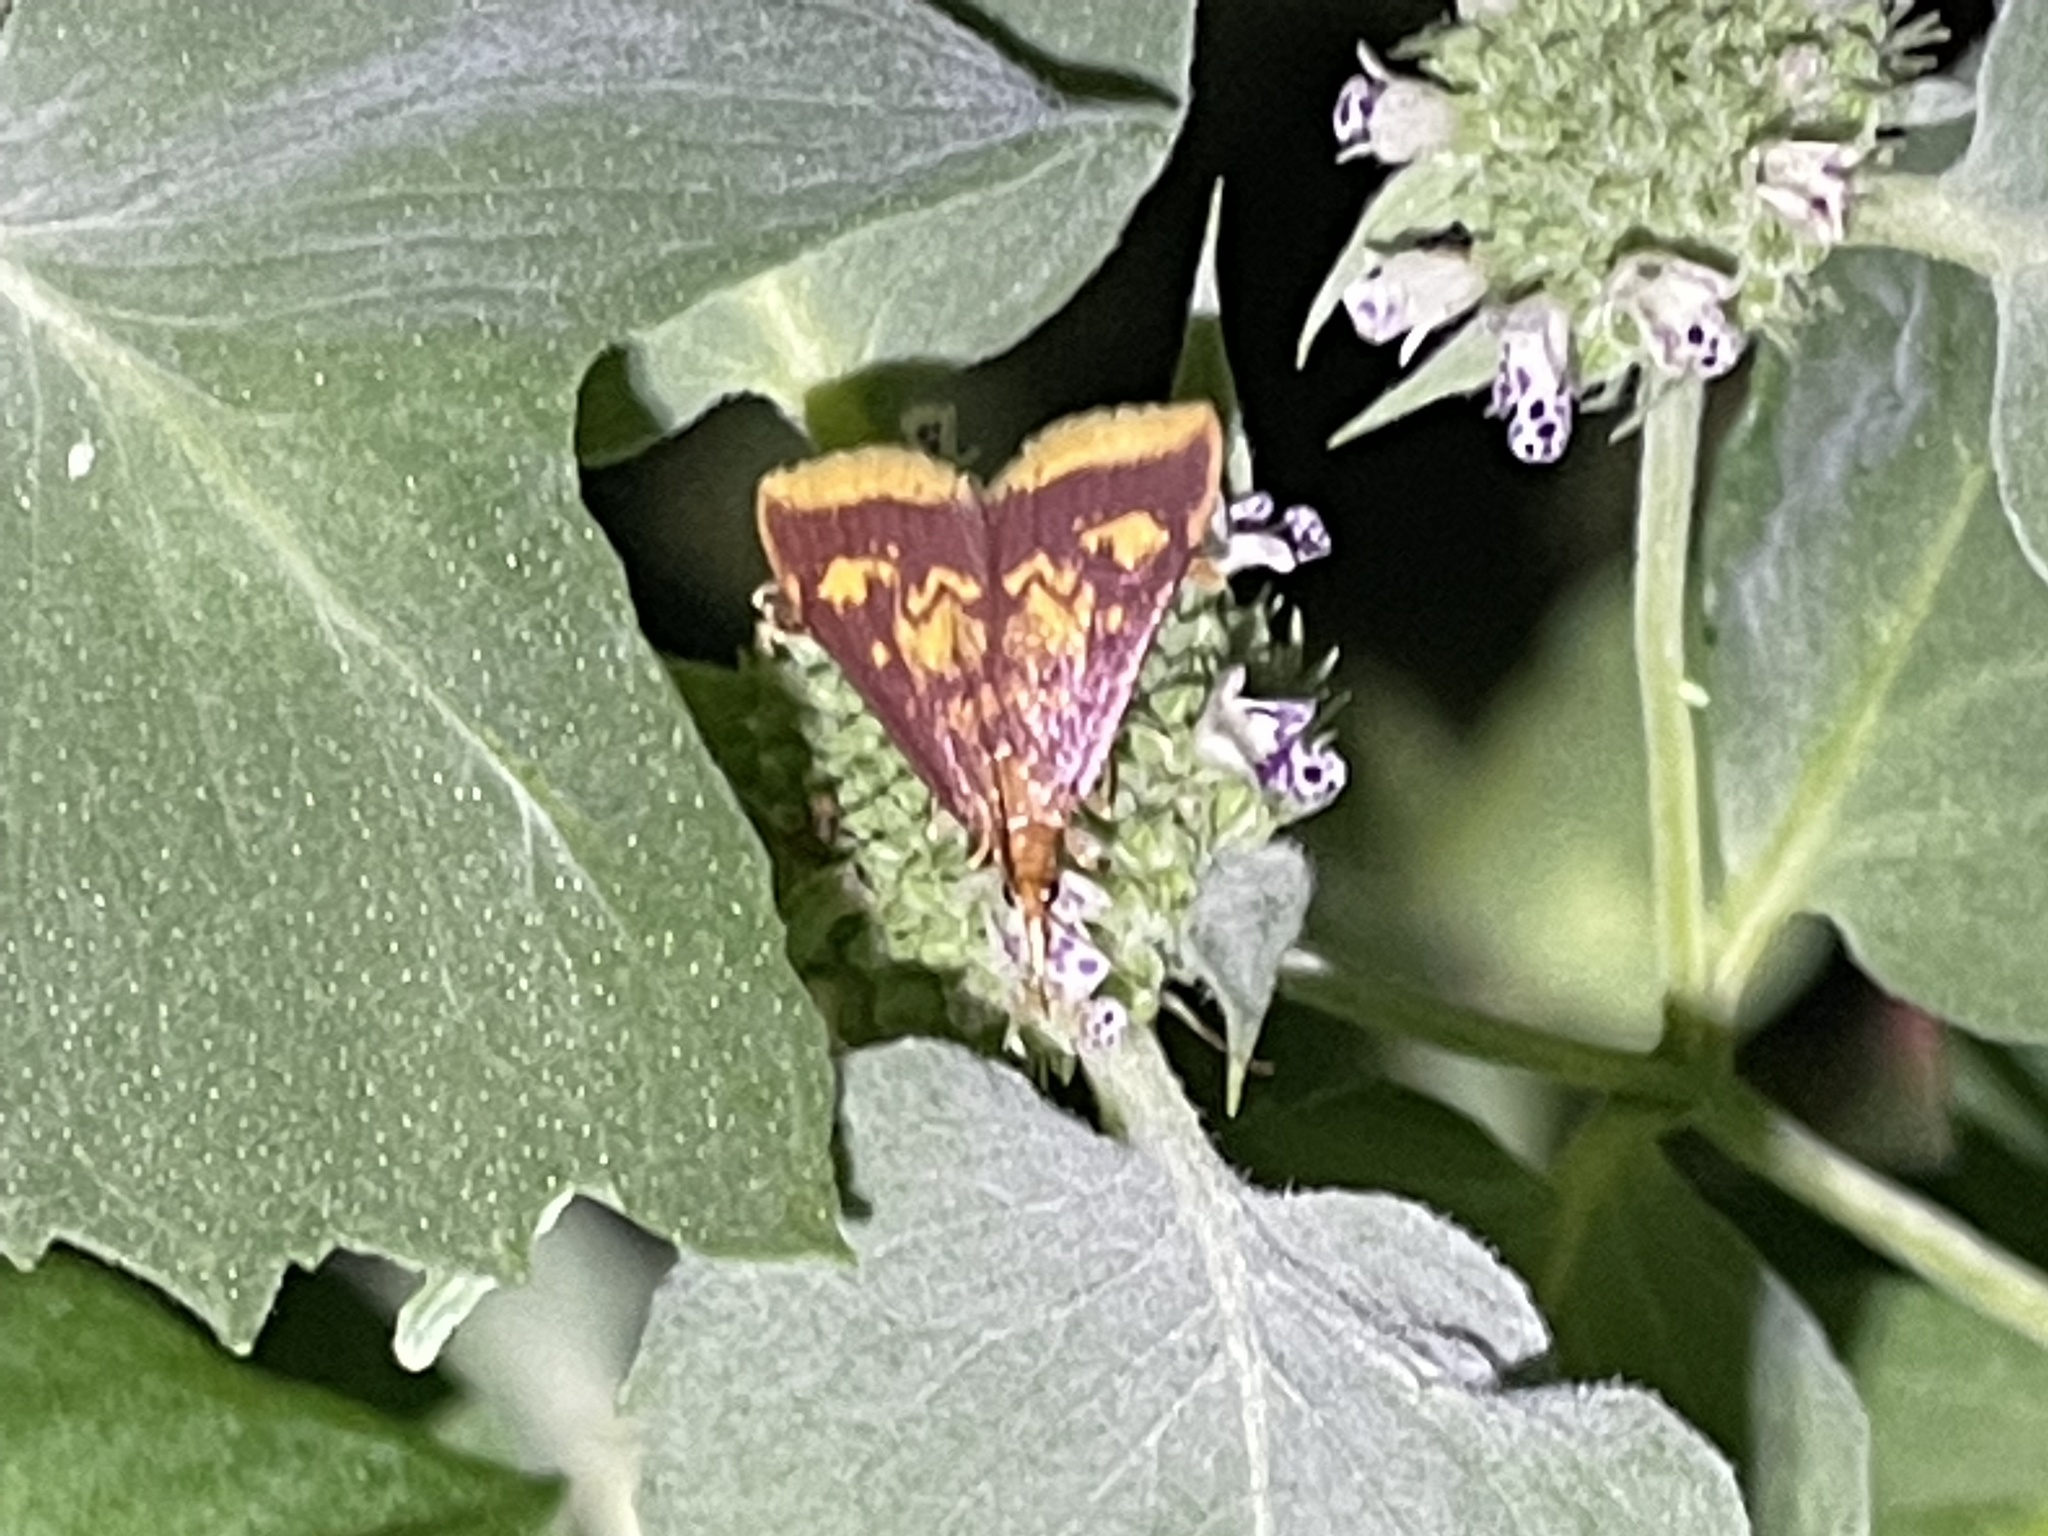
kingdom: Animalia
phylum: Arthropoda
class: Insecta
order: Lepidoptera
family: Crambidae
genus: Pyrausta
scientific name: Pyrausta acrionalis
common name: Mint-loving pyrausta moth
